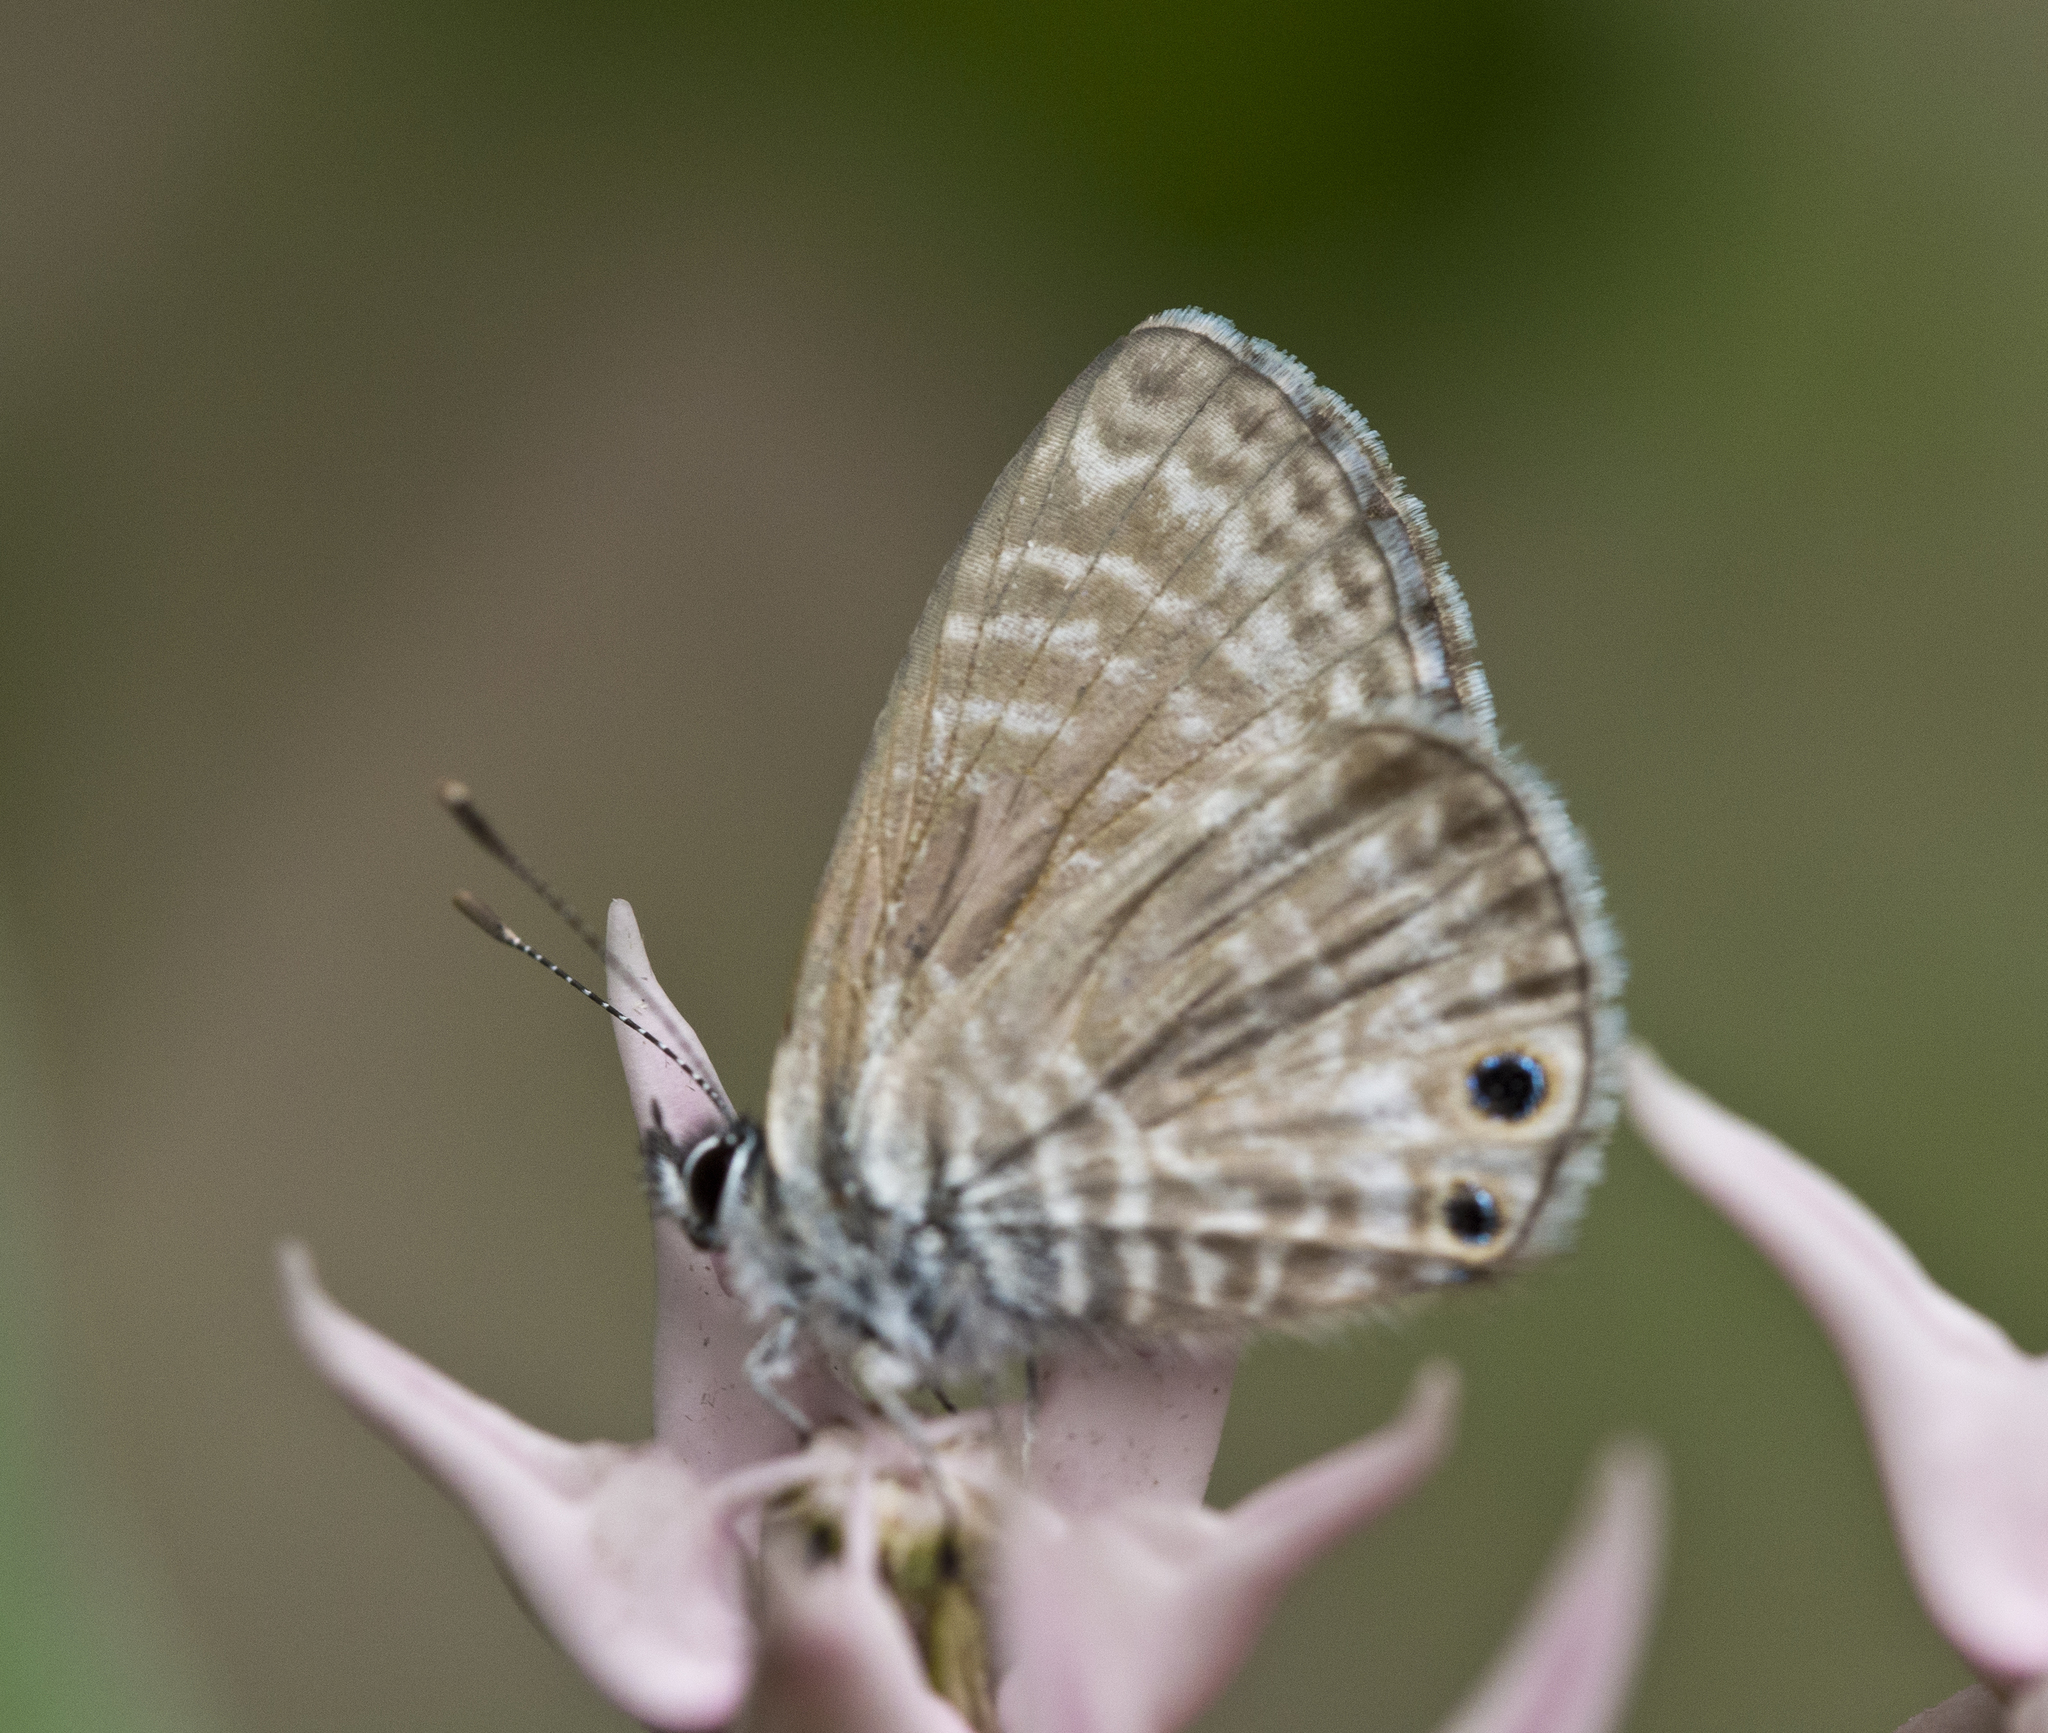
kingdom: Animalia
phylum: Arthropoda
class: Insecta
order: Lepidoptera
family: Lycaenidae
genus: Leptotes
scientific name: Leptotes marina
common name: Marine blue
